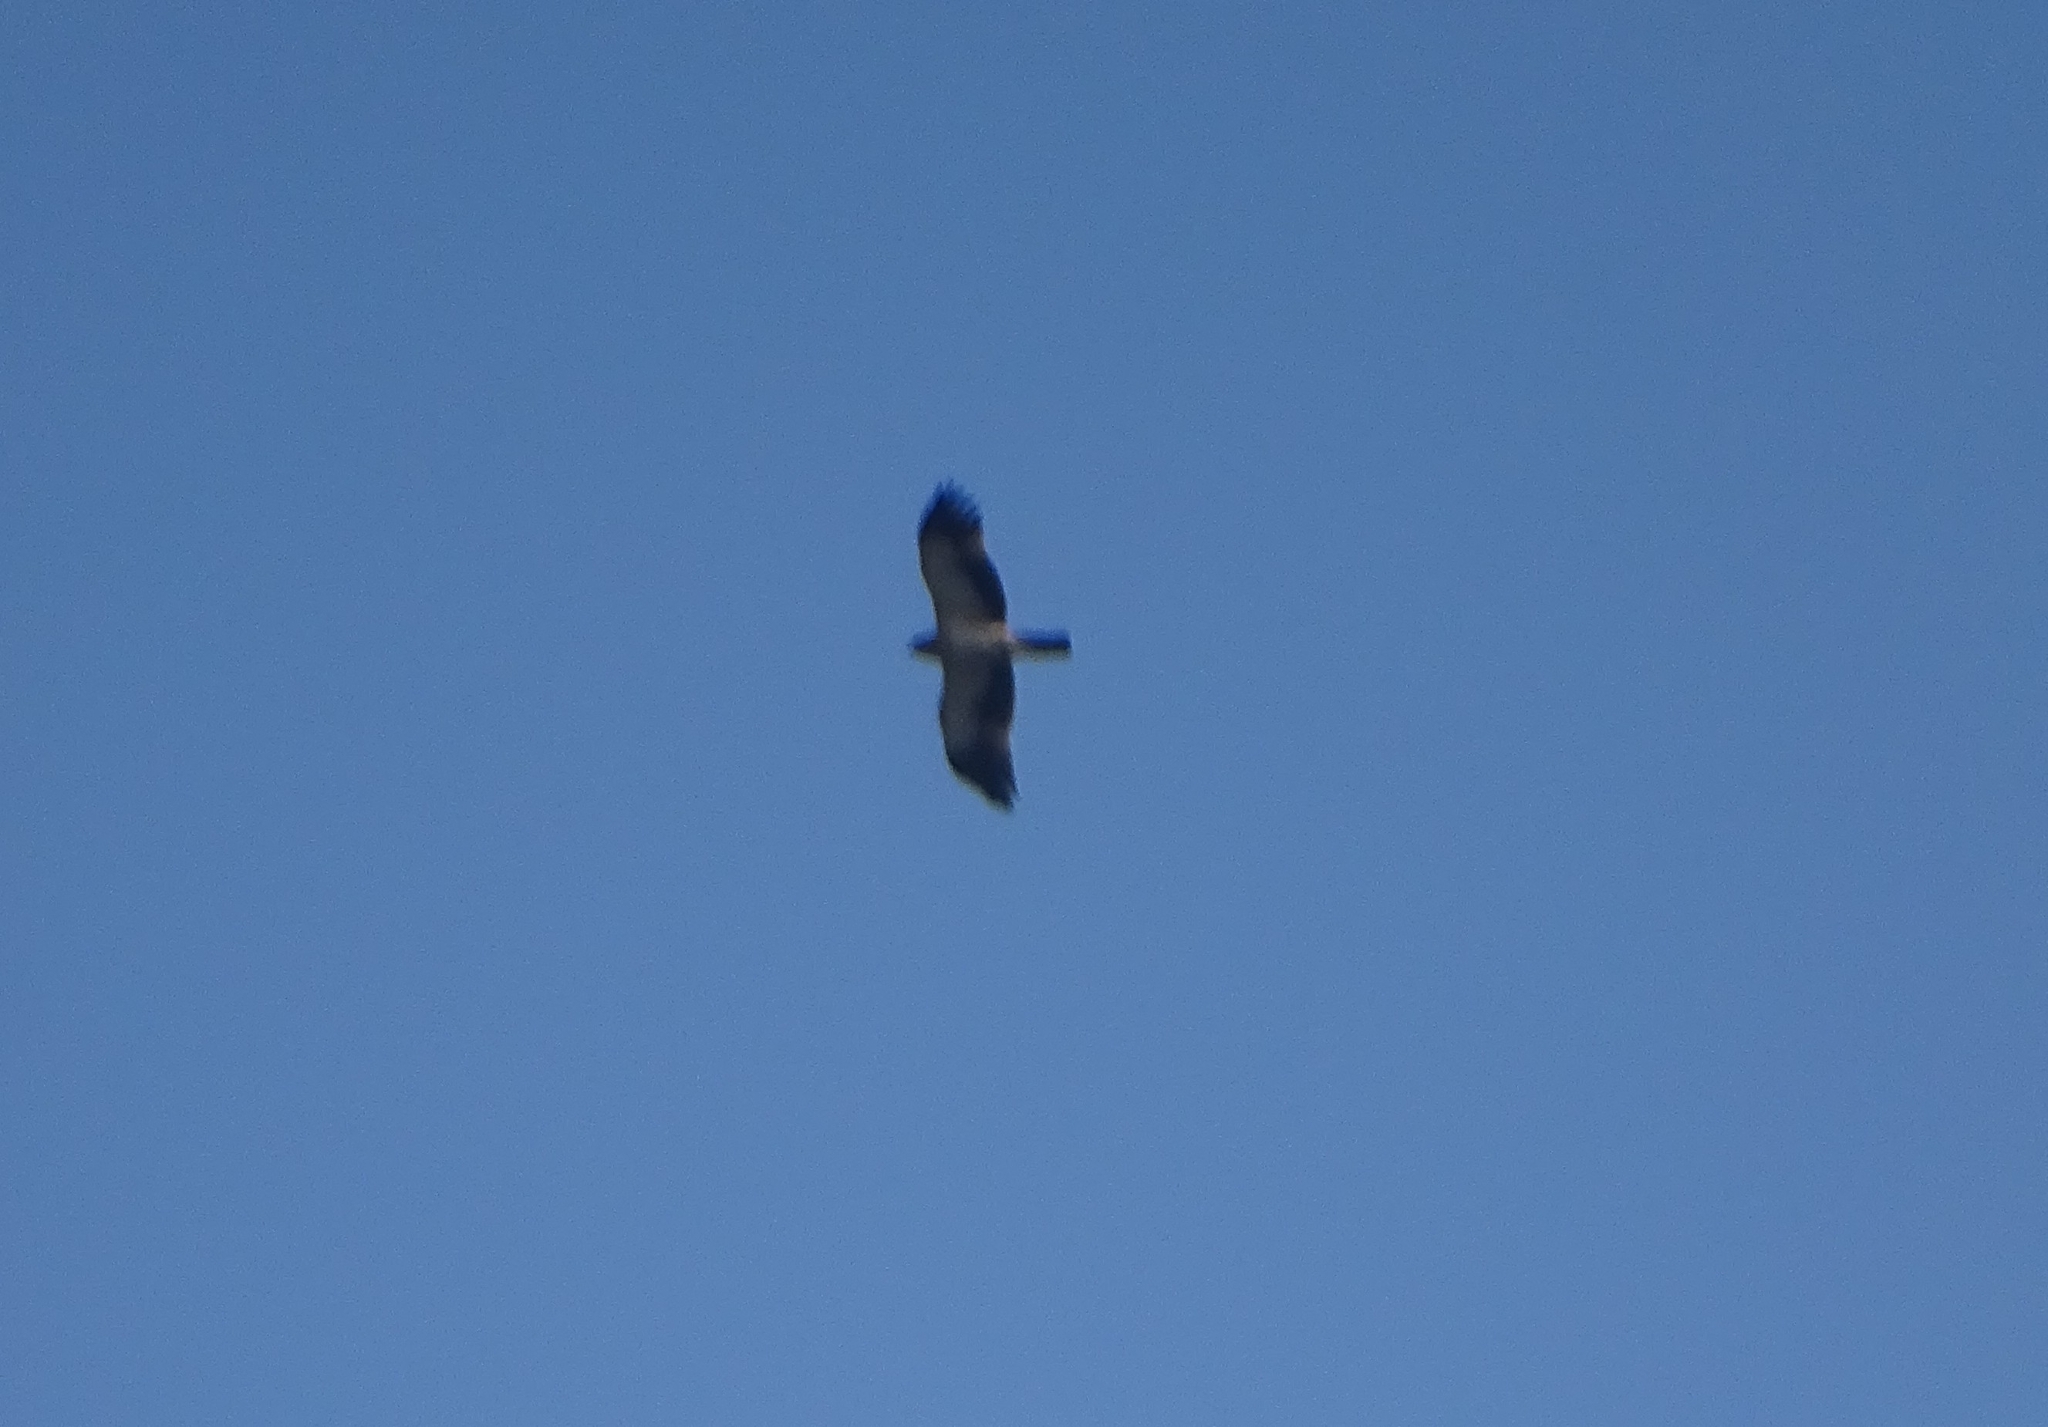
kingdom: Animalia
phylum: Chordata
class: Aves
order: Accipitriformes
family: Accipitridae
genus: Hieraaetus
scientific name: Hieraaetus pennatus
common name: Booted eagle
